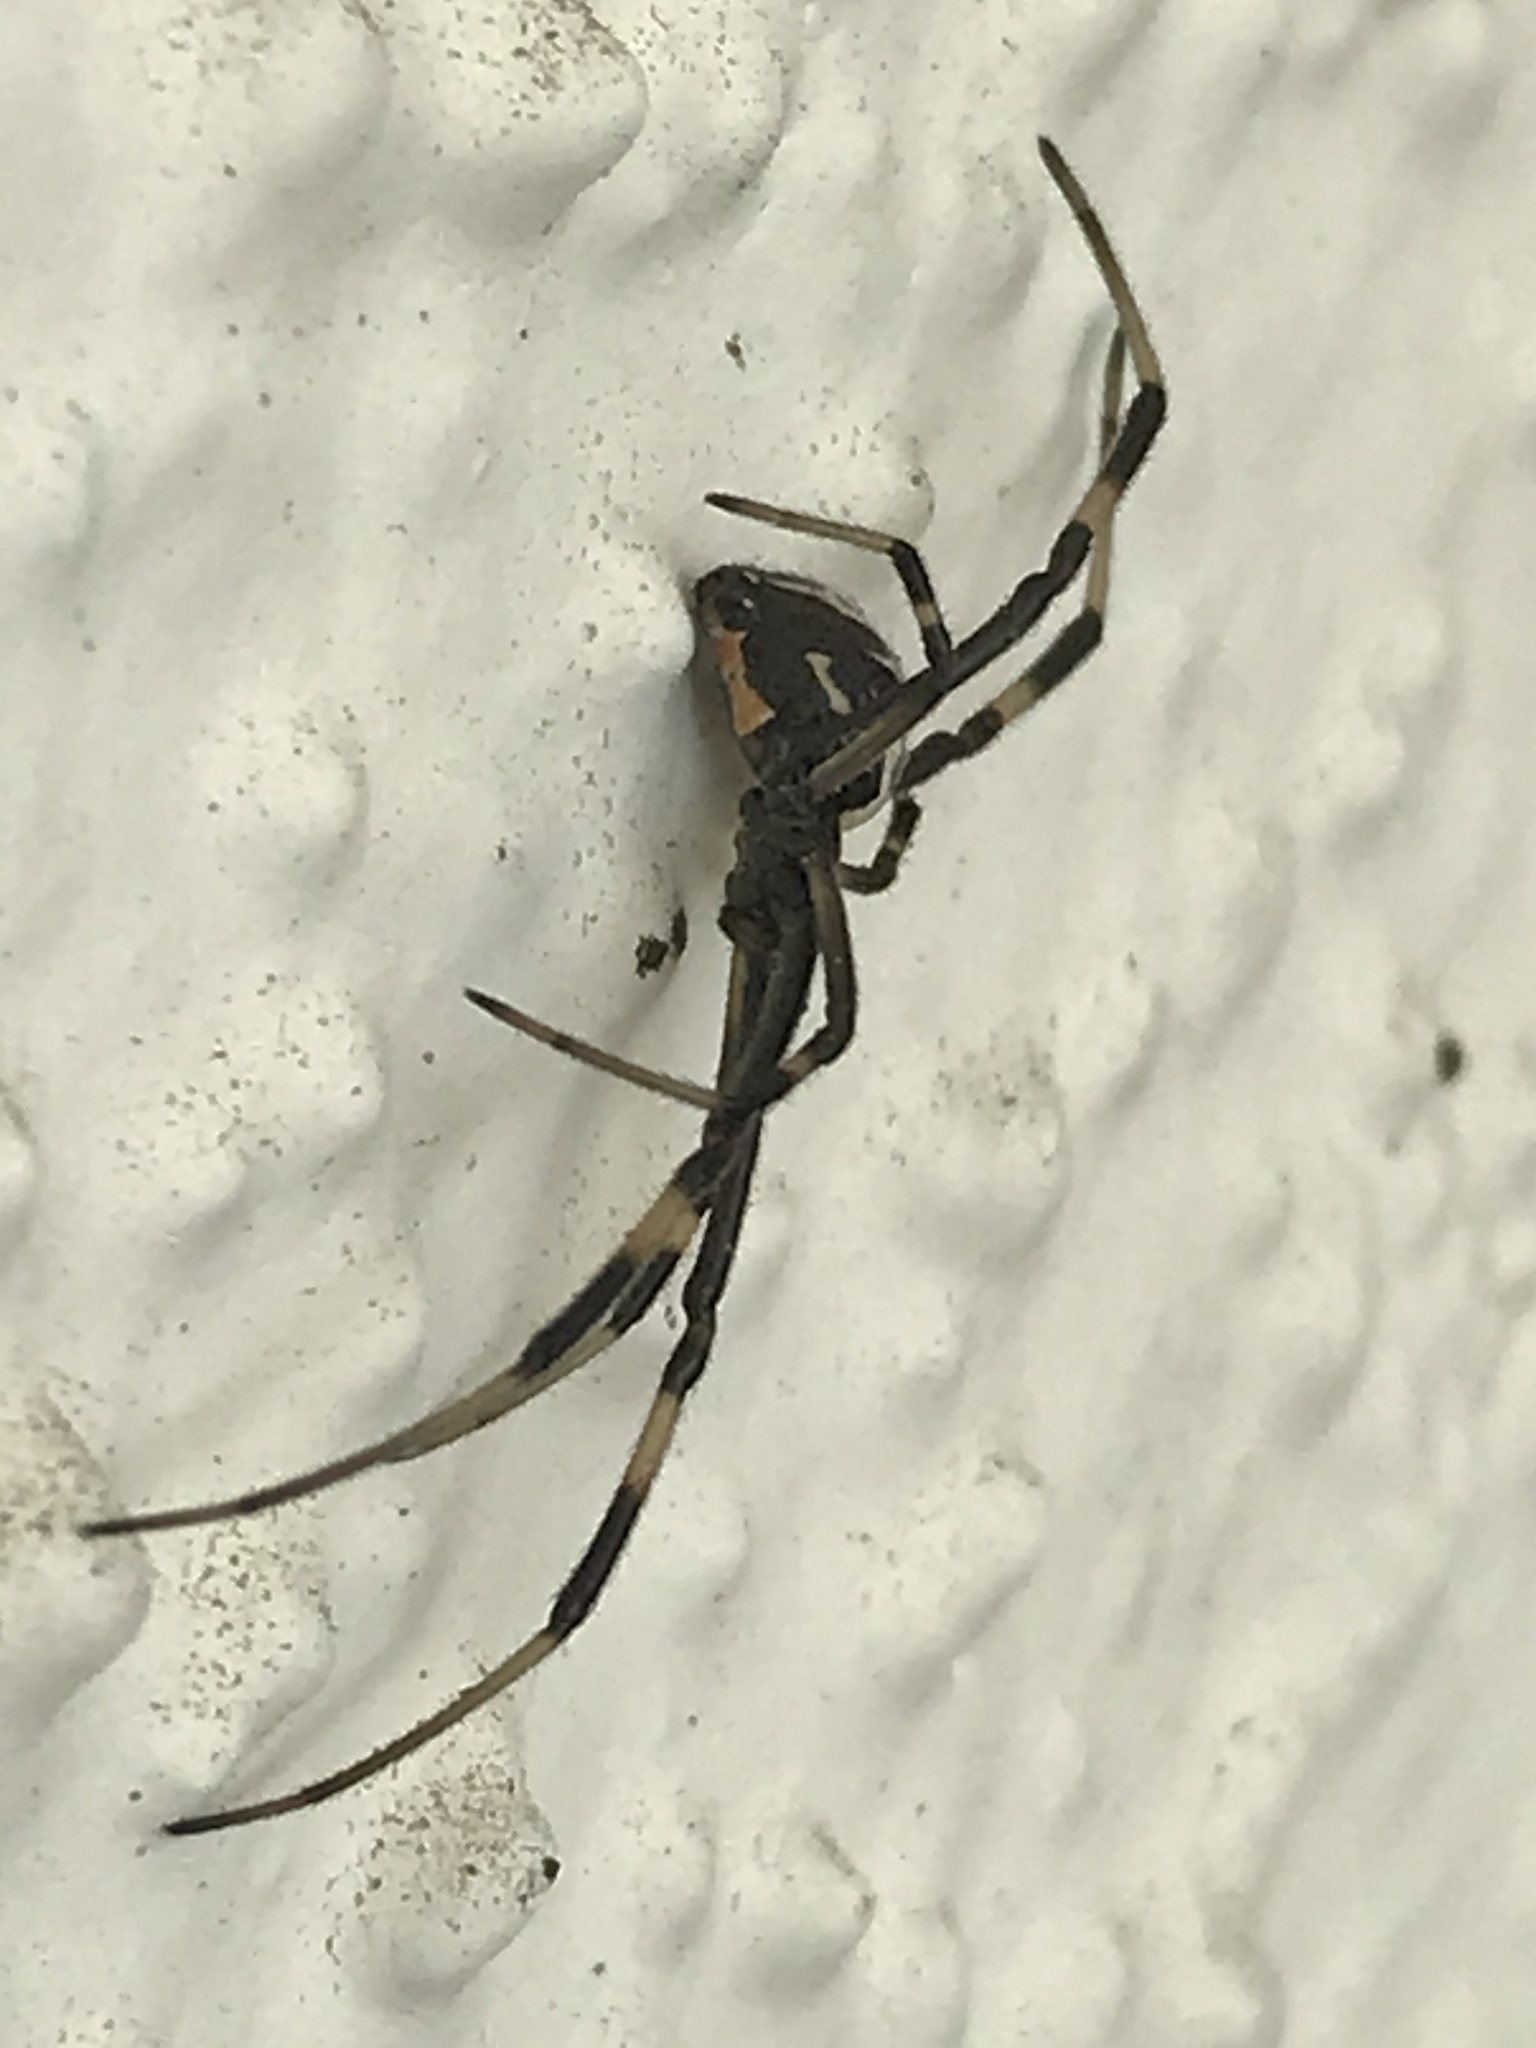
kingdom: Animalia
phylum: Arthropoda
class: Arachnida
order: Araneae
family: Theridiidae
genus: Latrodectus
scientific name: Latrodectus hesperus
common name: Western black widow
